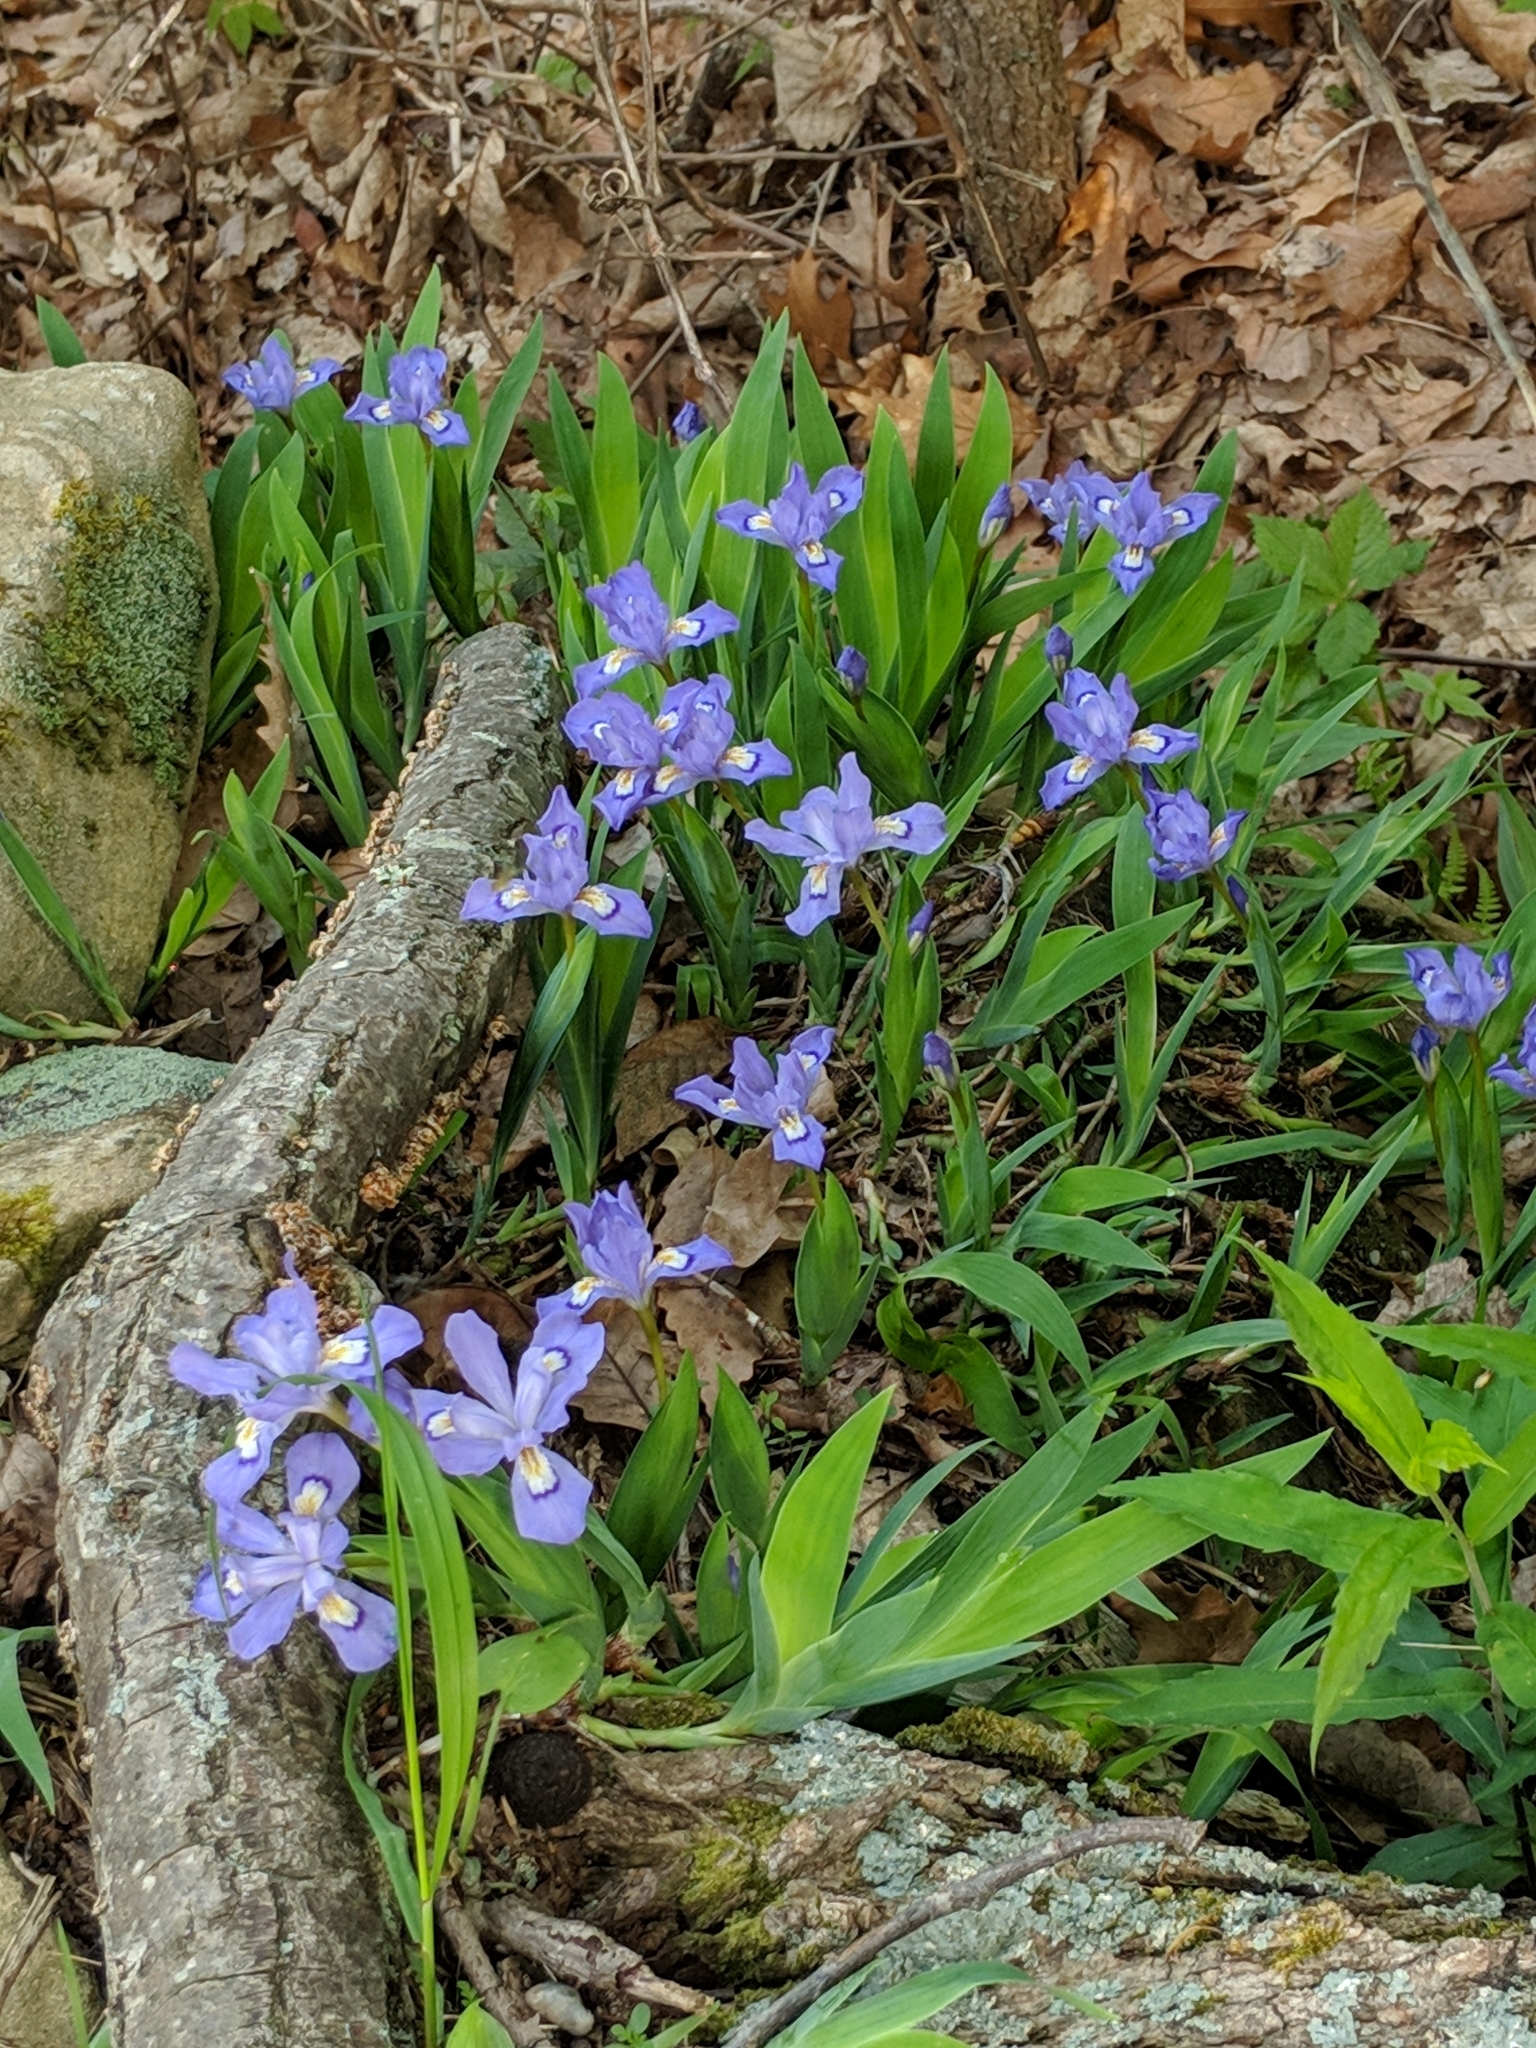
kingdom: Plantae
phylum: Tracheophyta
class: Liliopsida
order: Asparagales
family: Iridaceae
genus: Iris
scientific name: Iris cristata
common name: Crested iris
